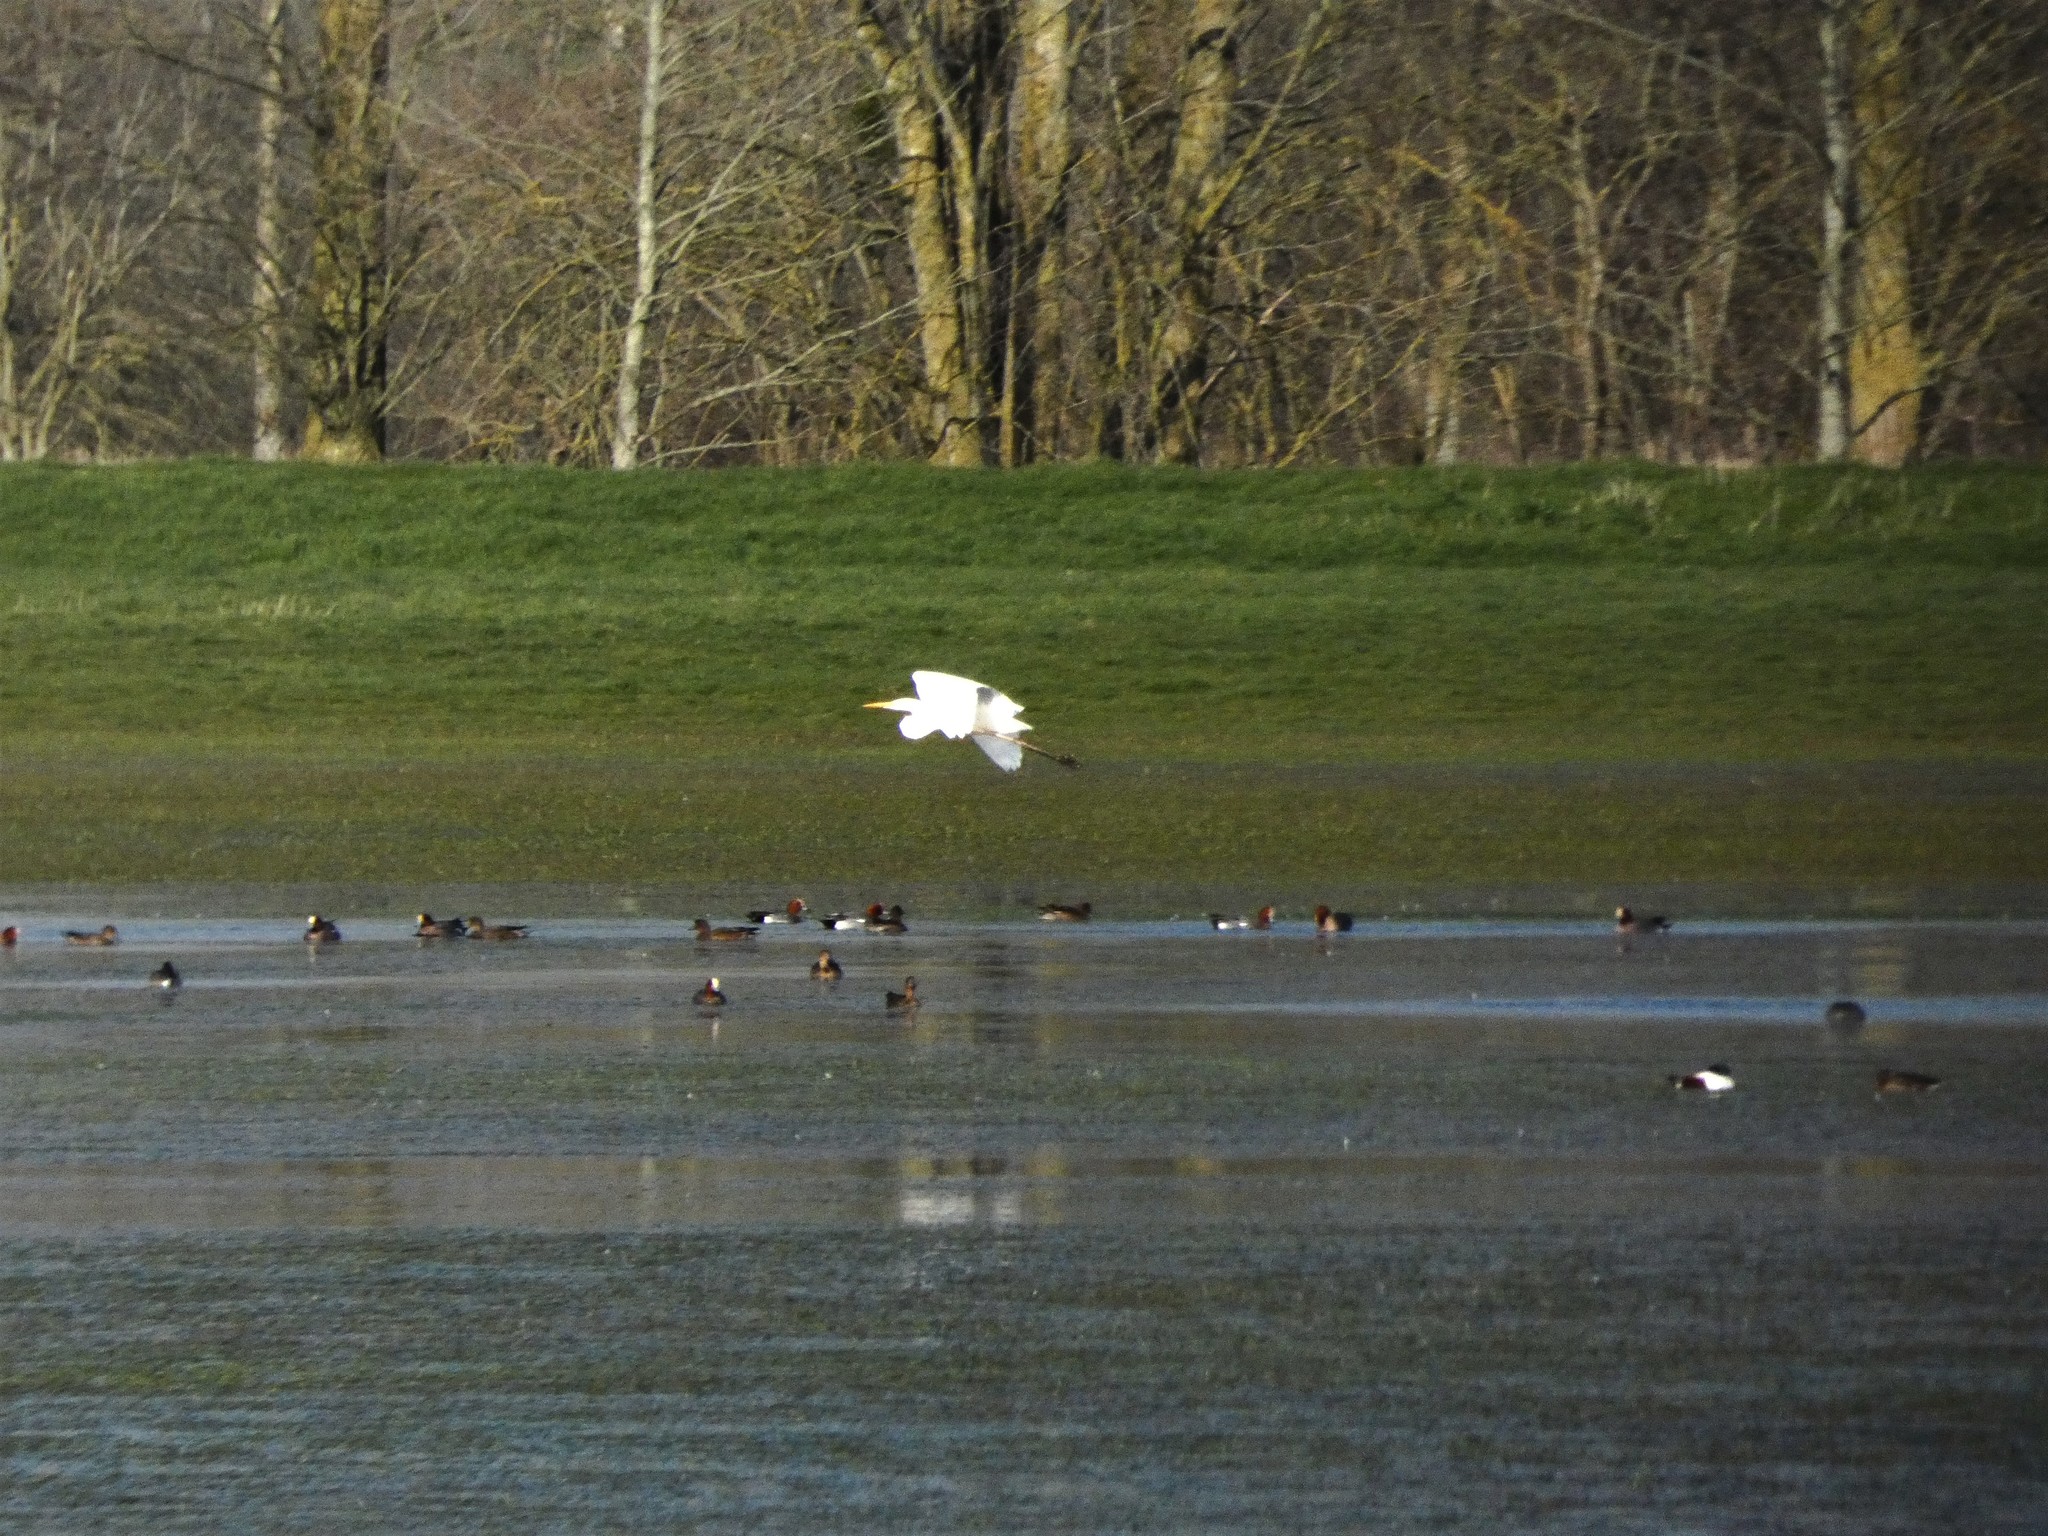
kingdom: Animalia
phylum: Chordata
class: Aves
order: Anseriformes
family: Anatidae
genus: Mareca
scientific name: Mareca penelope
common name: Eurasian wigeon
